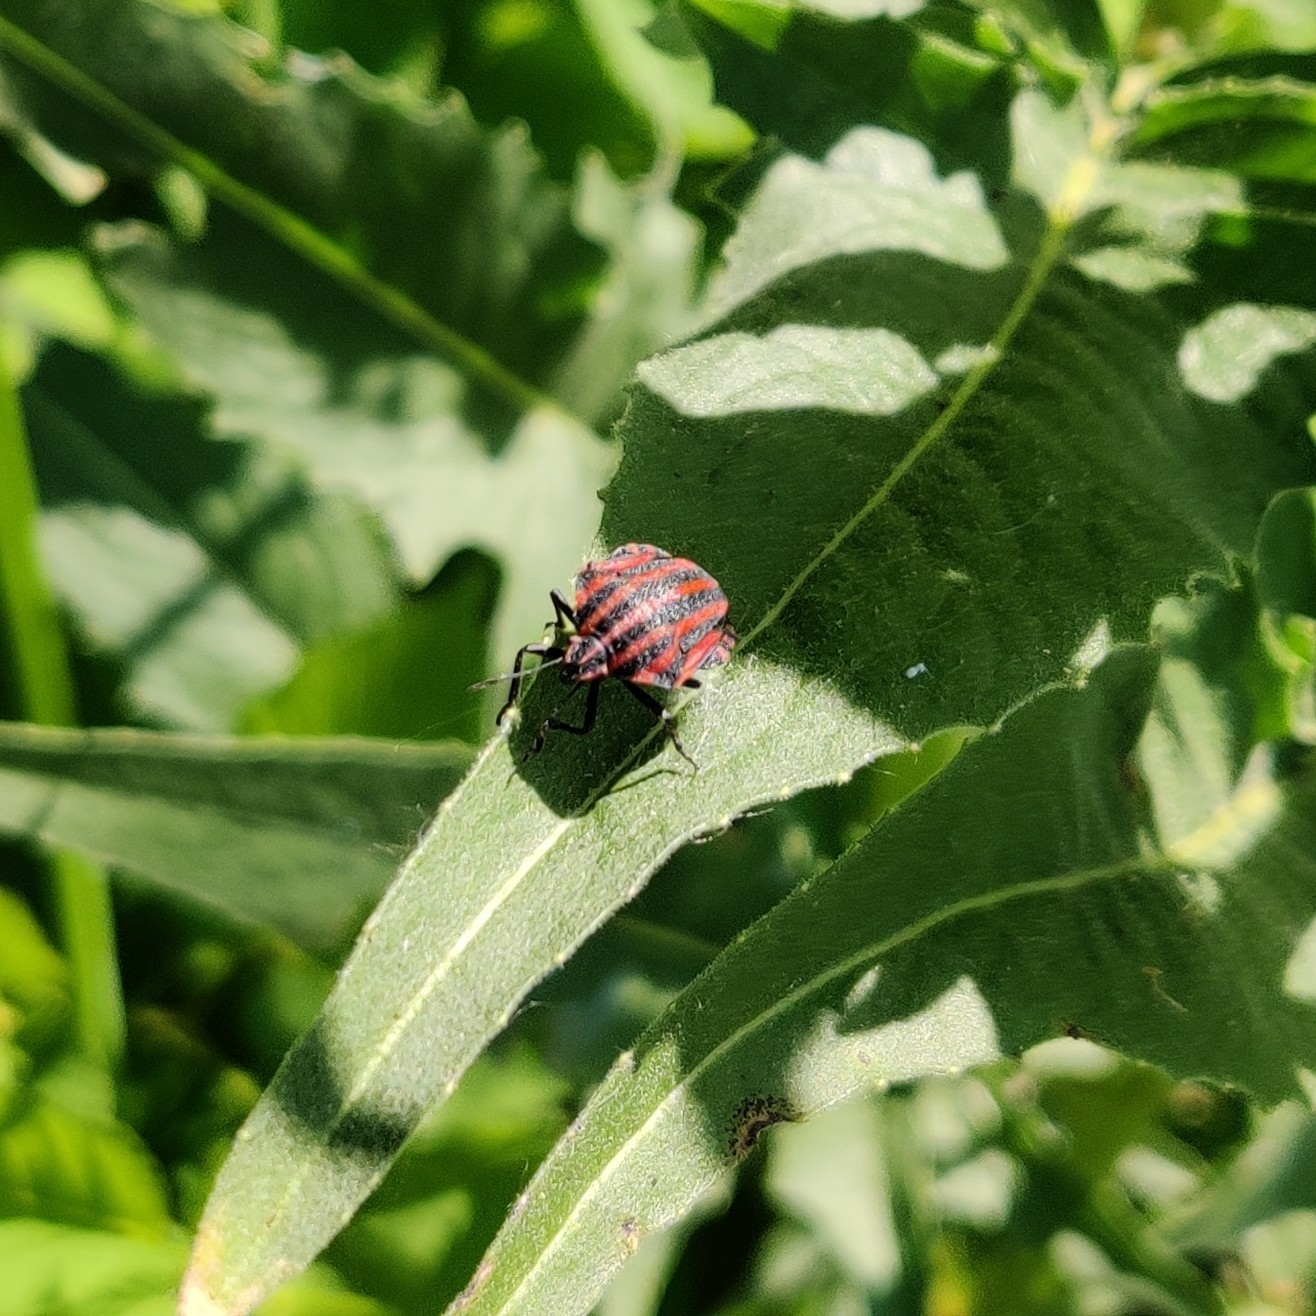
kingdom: Animalia
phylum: Arthropoda
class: Insecta
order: Hemiptera
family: Pentatomidae
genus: Graphosoma
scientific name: Graphosoma italicum
